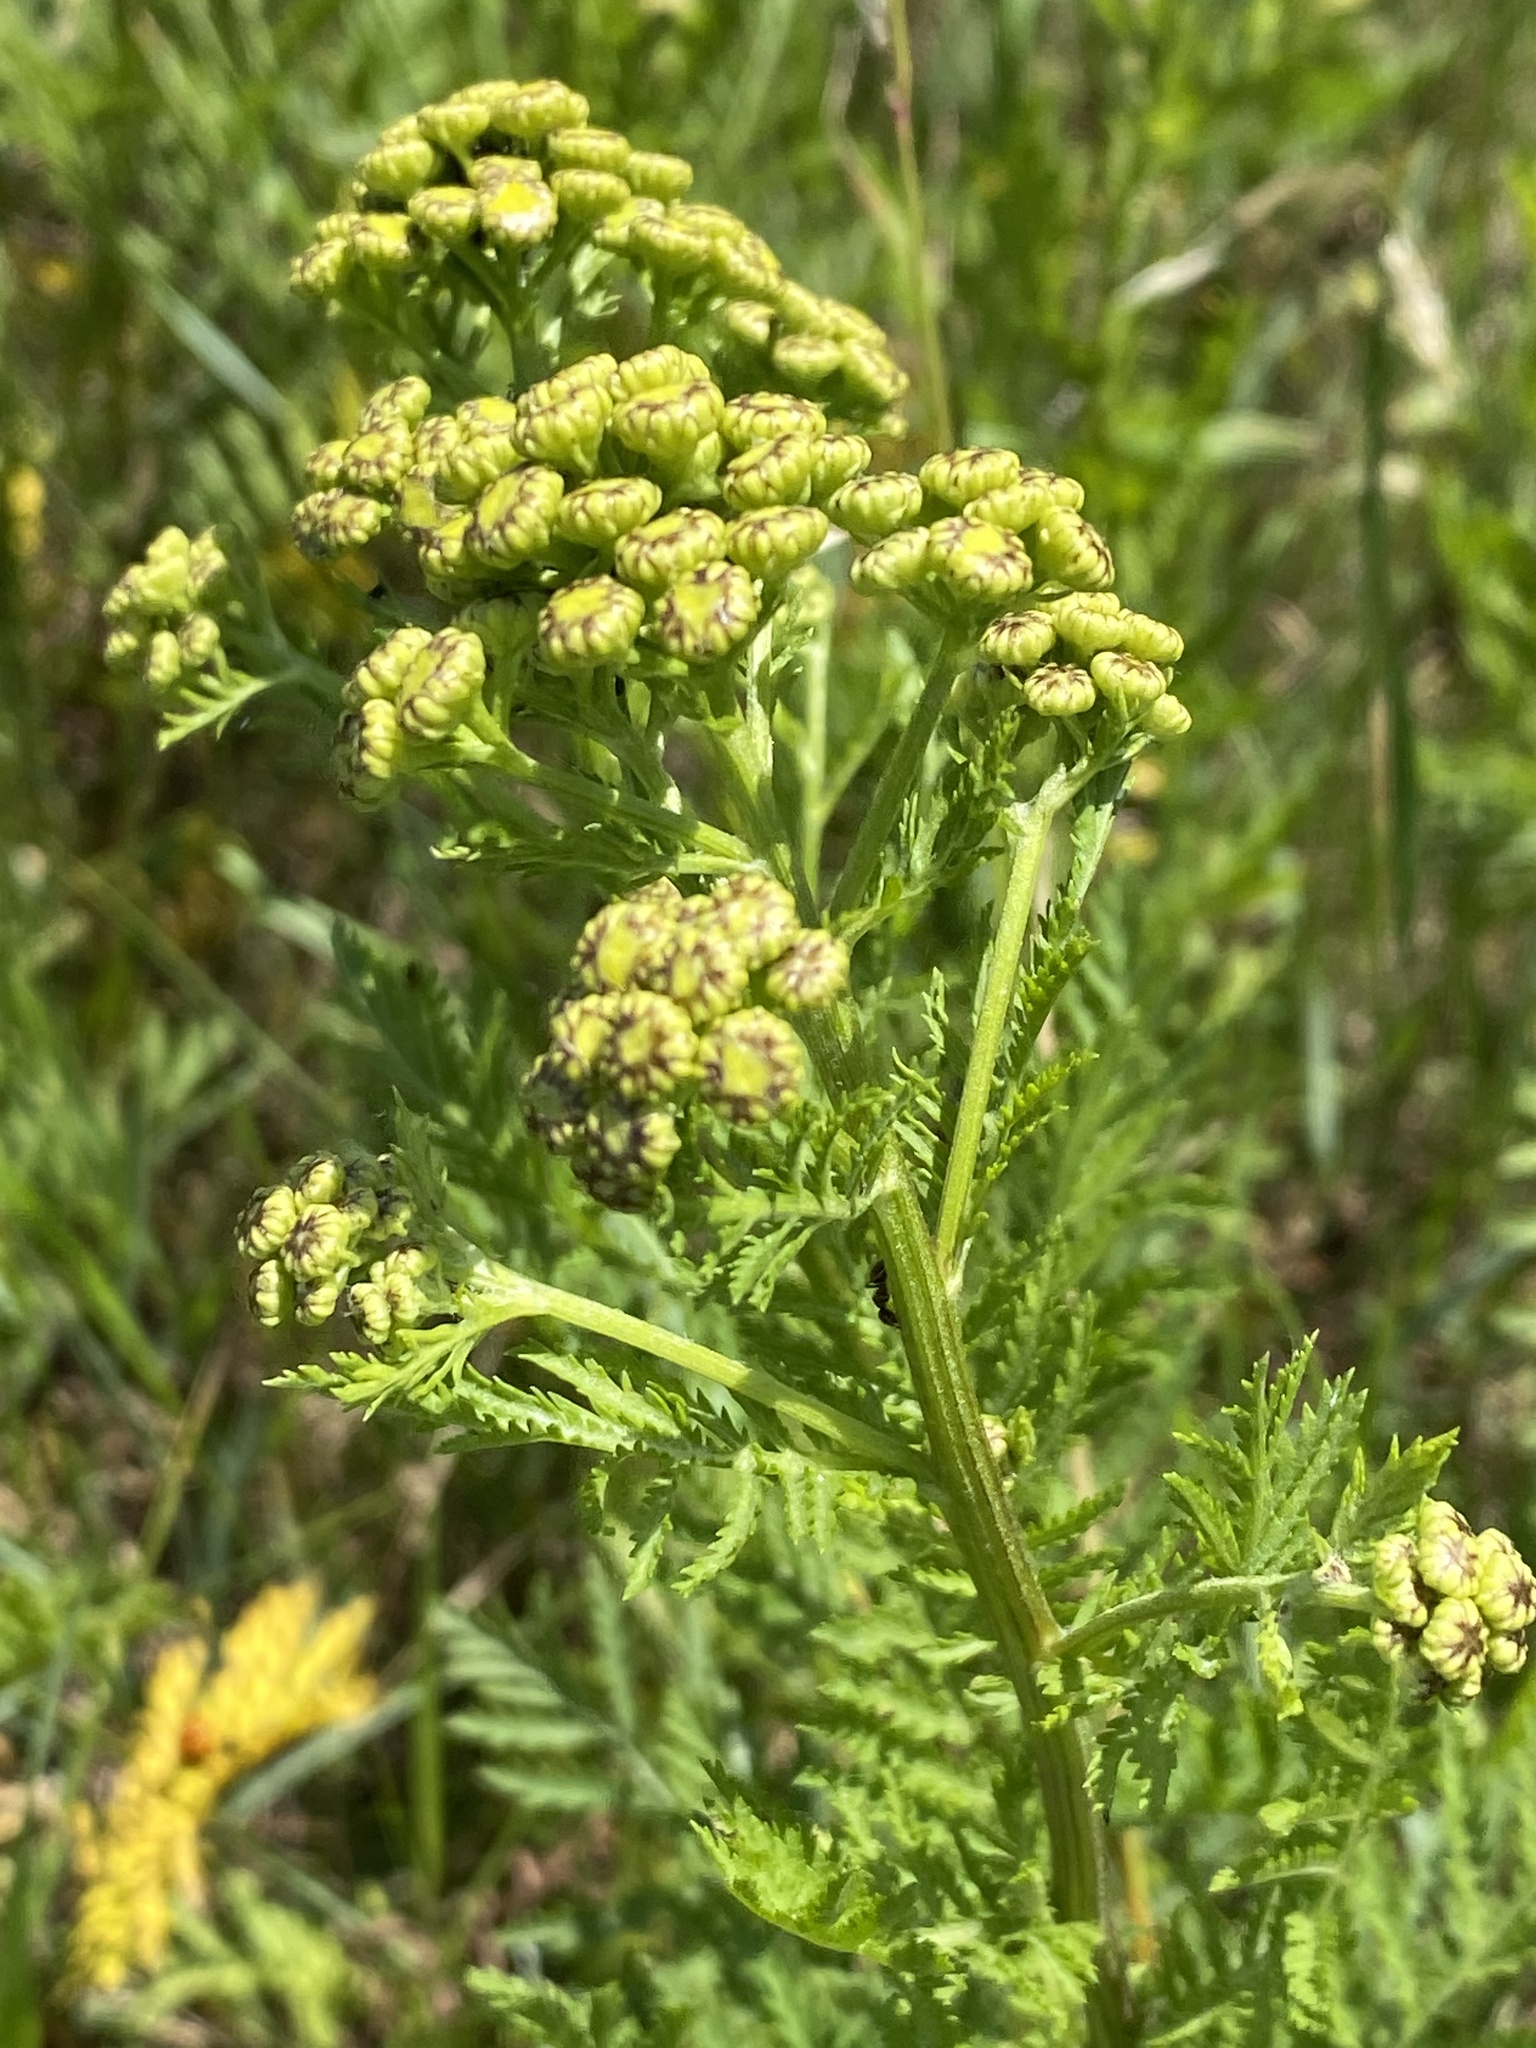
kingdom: Plantae
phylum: Tracheophyta
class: Magnoliopsida
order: Asterales
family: Asteraceae
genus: Tanacetum
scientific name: Tanacetum vulgare
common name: Common tansy
